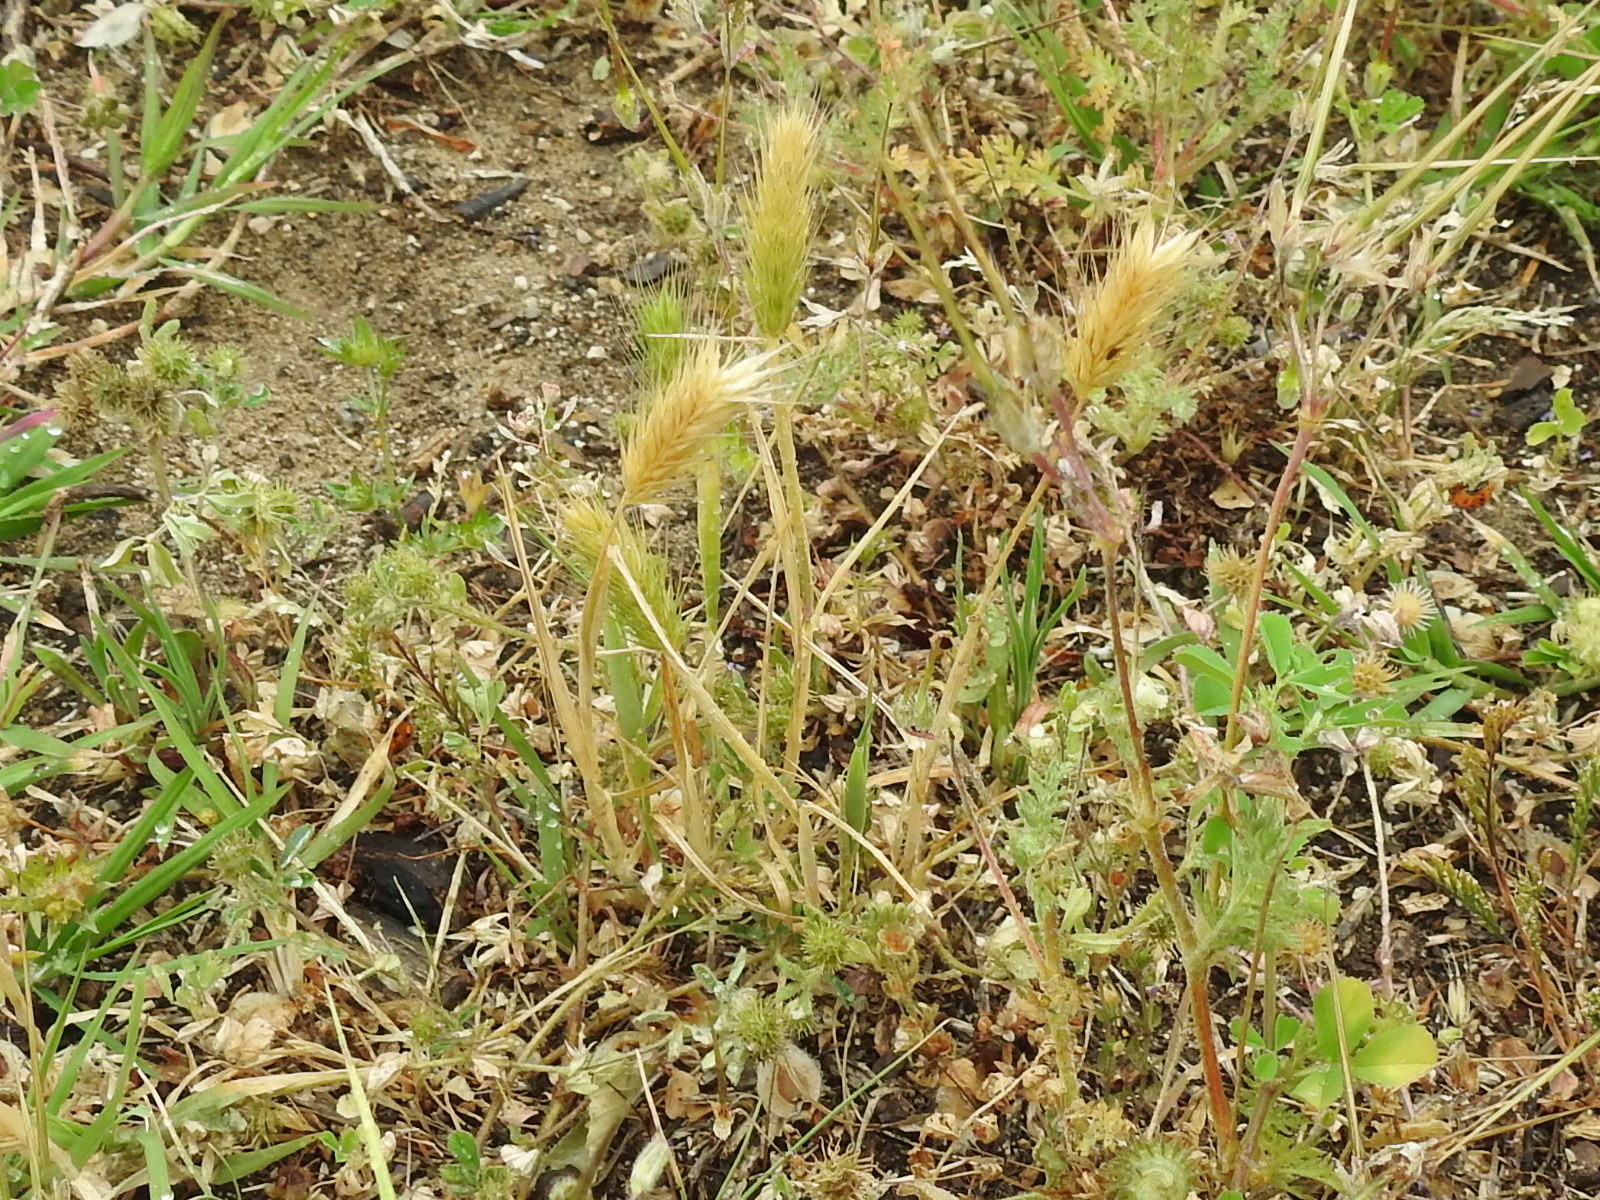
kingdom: Plantae
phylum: Tracheophyta
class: Liliopsida
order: Poales
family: Poaceae
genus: Hordeum
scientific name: Hordeum pusillum
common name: Little barley
